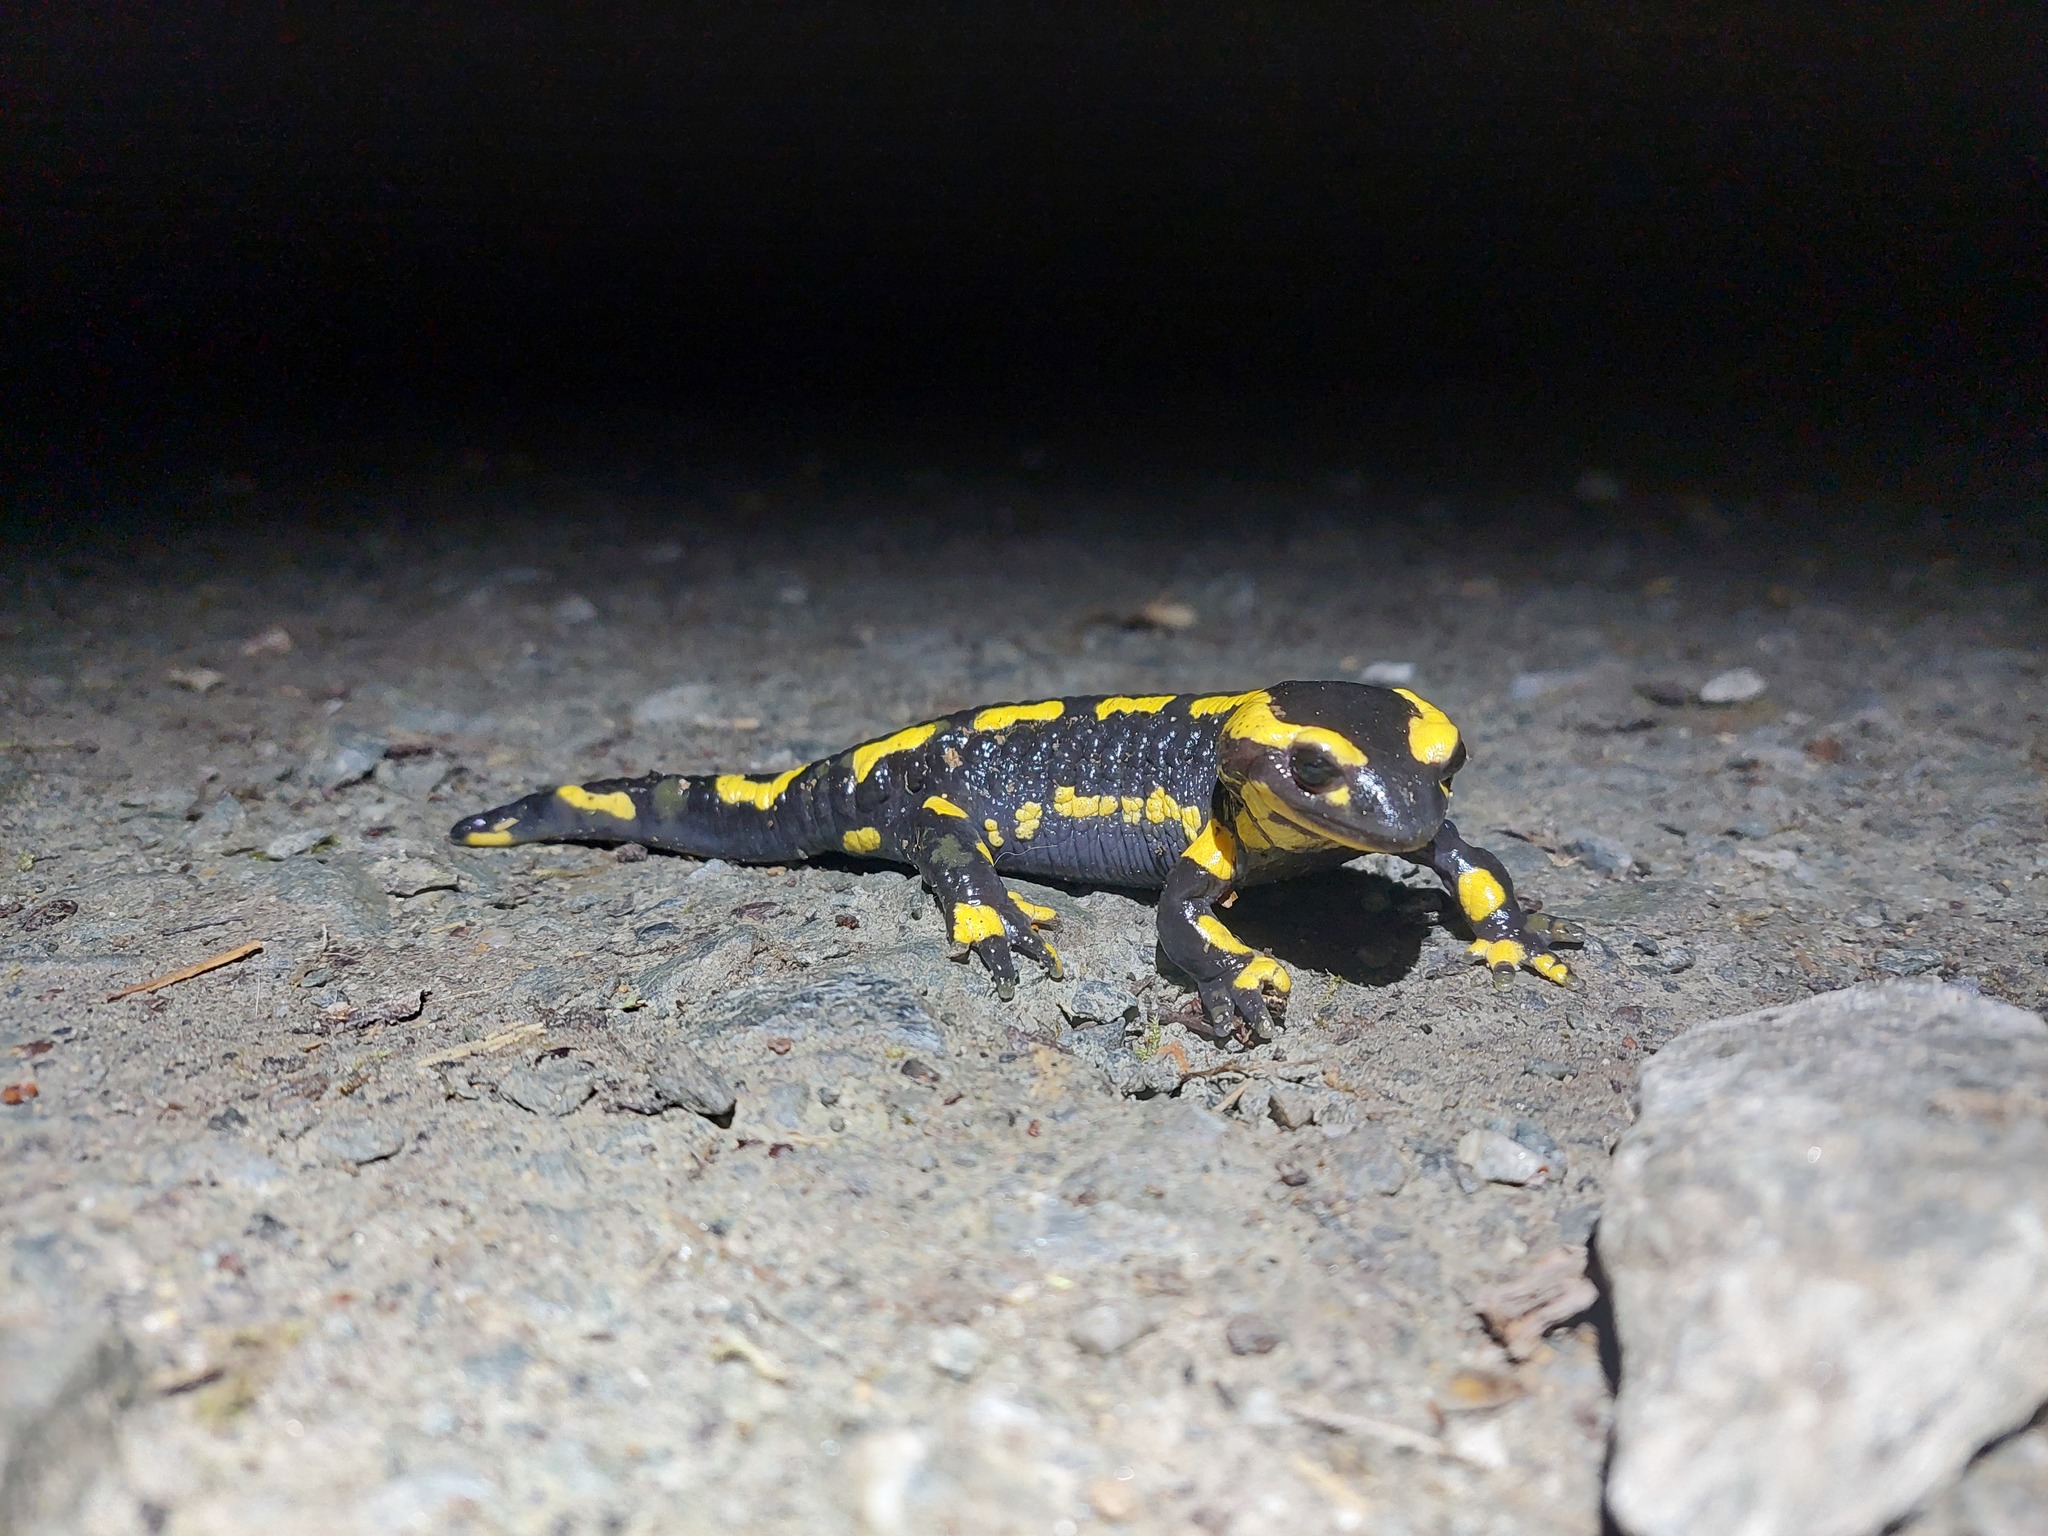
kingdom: Animalia
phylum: Chordata
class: Amphibia
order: Caudata
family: Salamandridae
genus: Salamandra
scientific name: Salamandra salamandra
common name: Fire salamander
